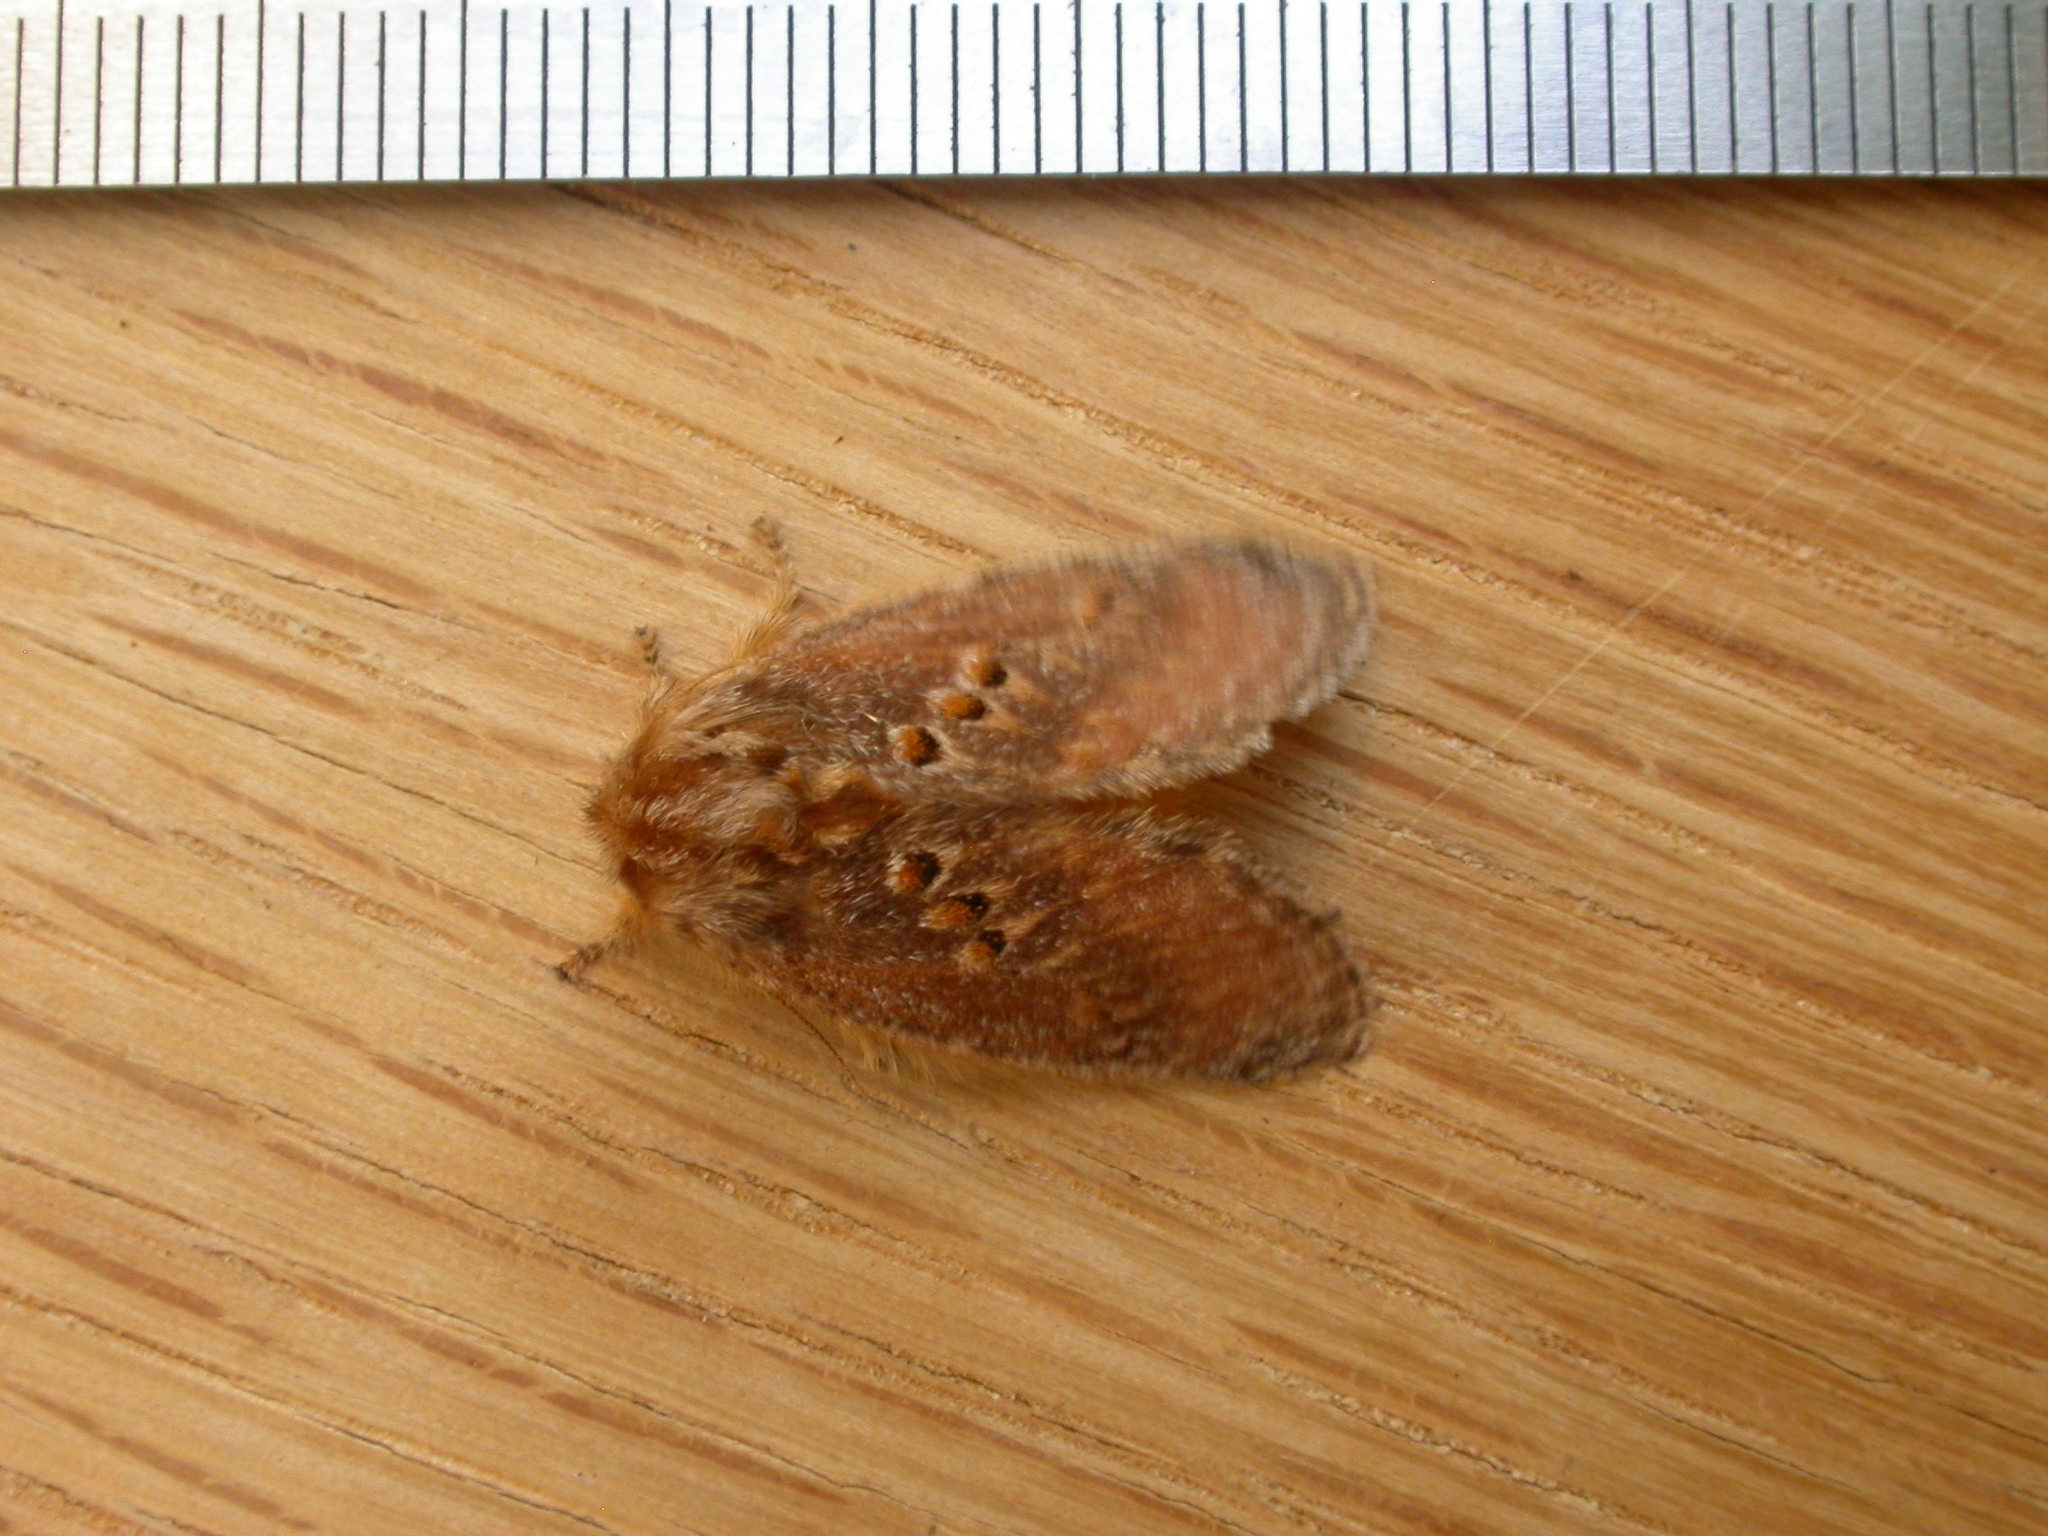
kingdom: Animalia
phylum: Arthropoda
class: Insecta
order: Lepidoptera
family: Limacodidae
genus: Pseudanapaea
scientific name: Pseudanapaea transvestita
